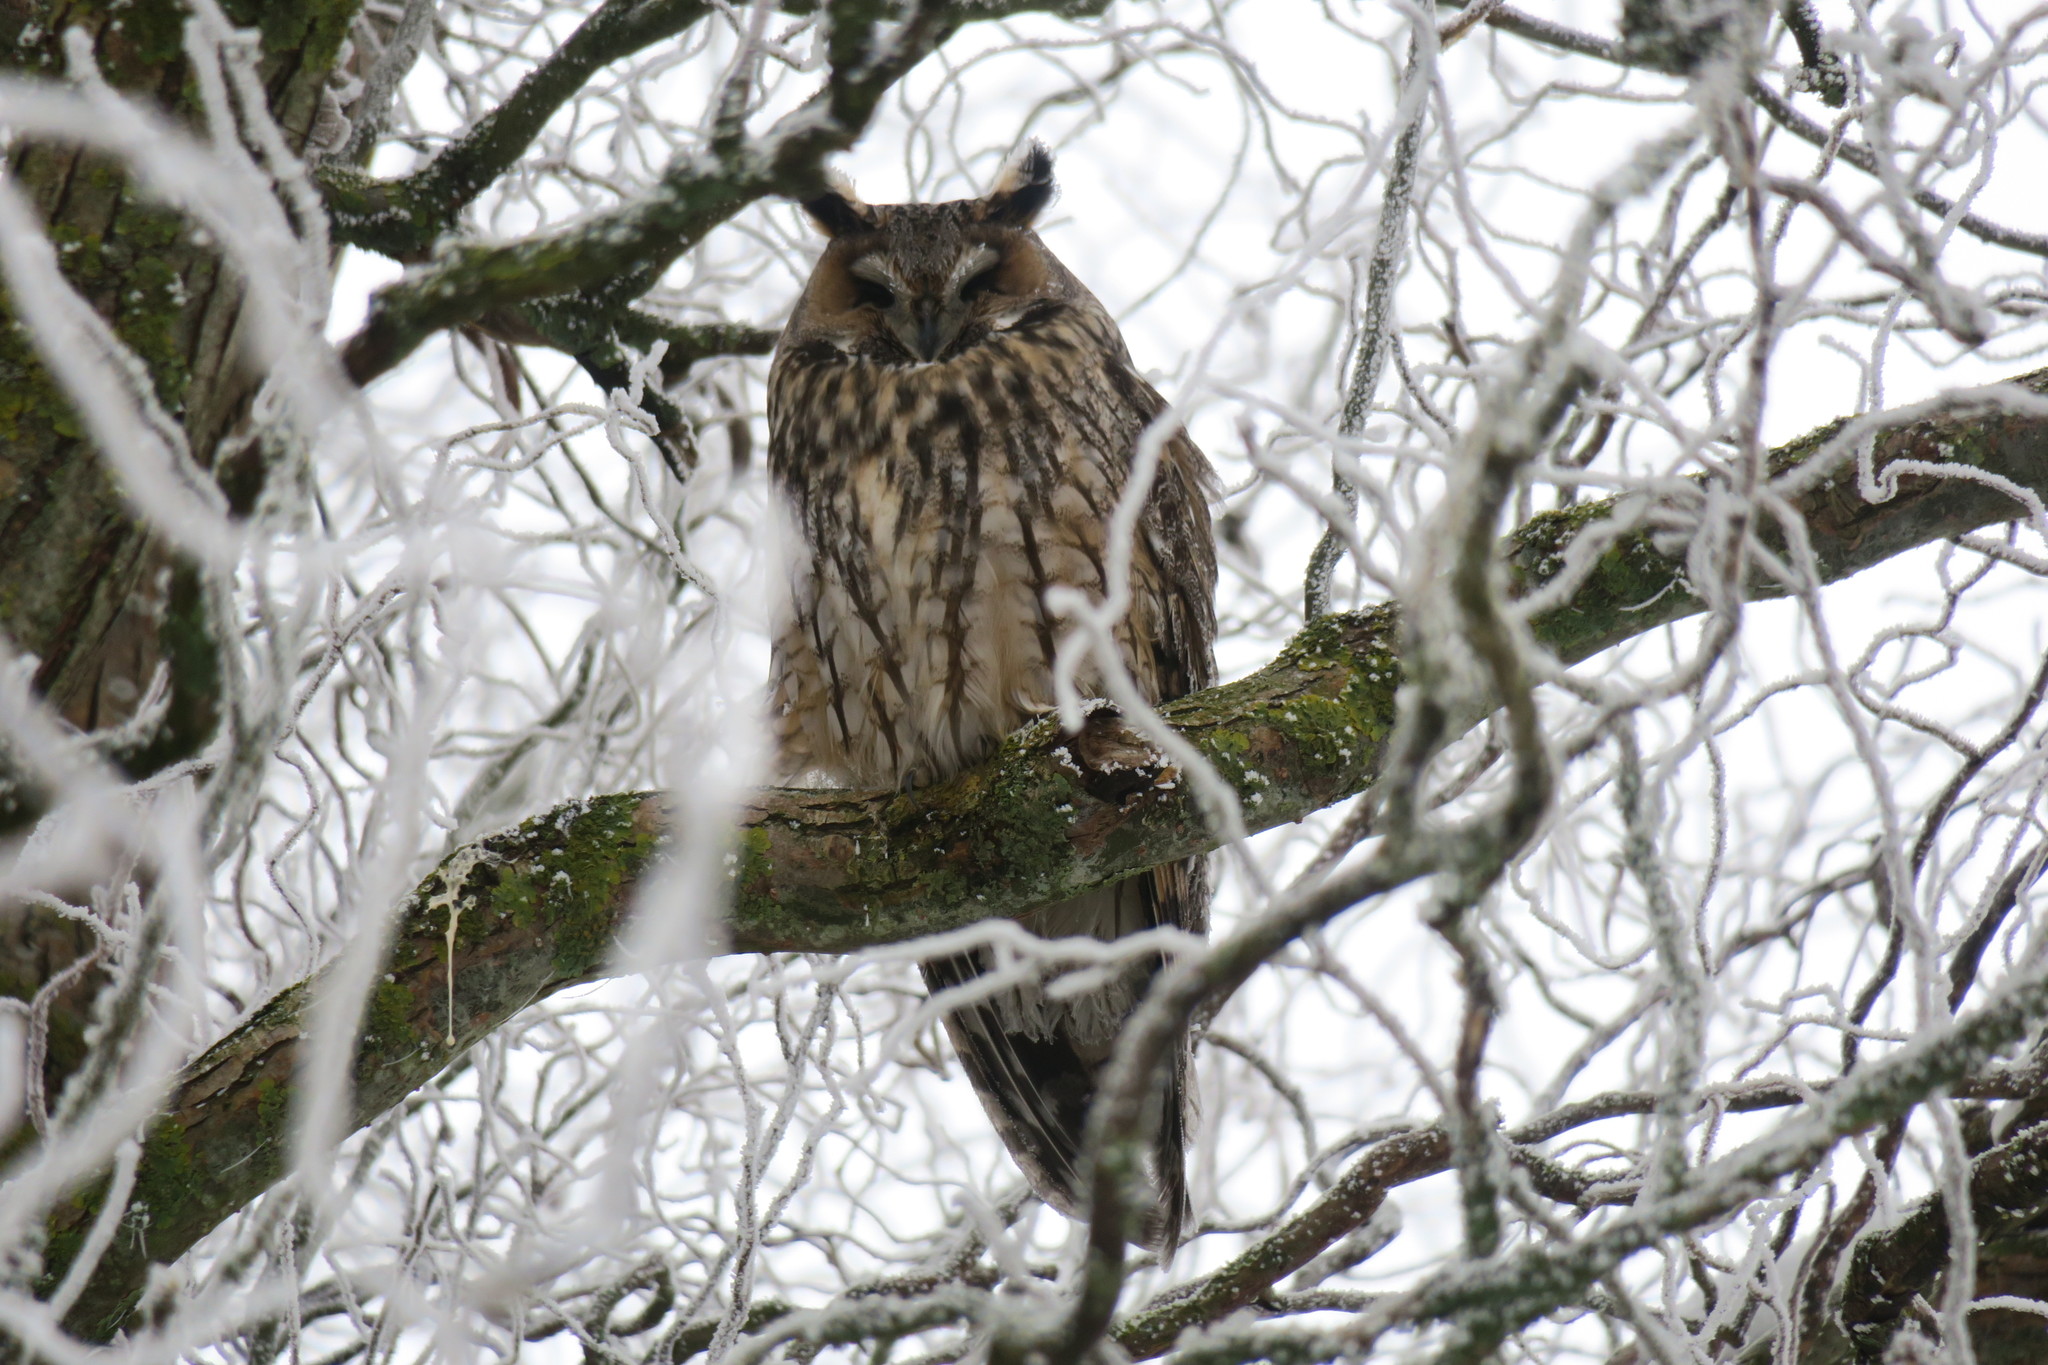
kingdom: Animalia
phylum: Chordata
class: Aves
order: Strigiformes
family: Strigidae
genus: Asio
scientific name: Asio otus
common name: Long-eared owl
